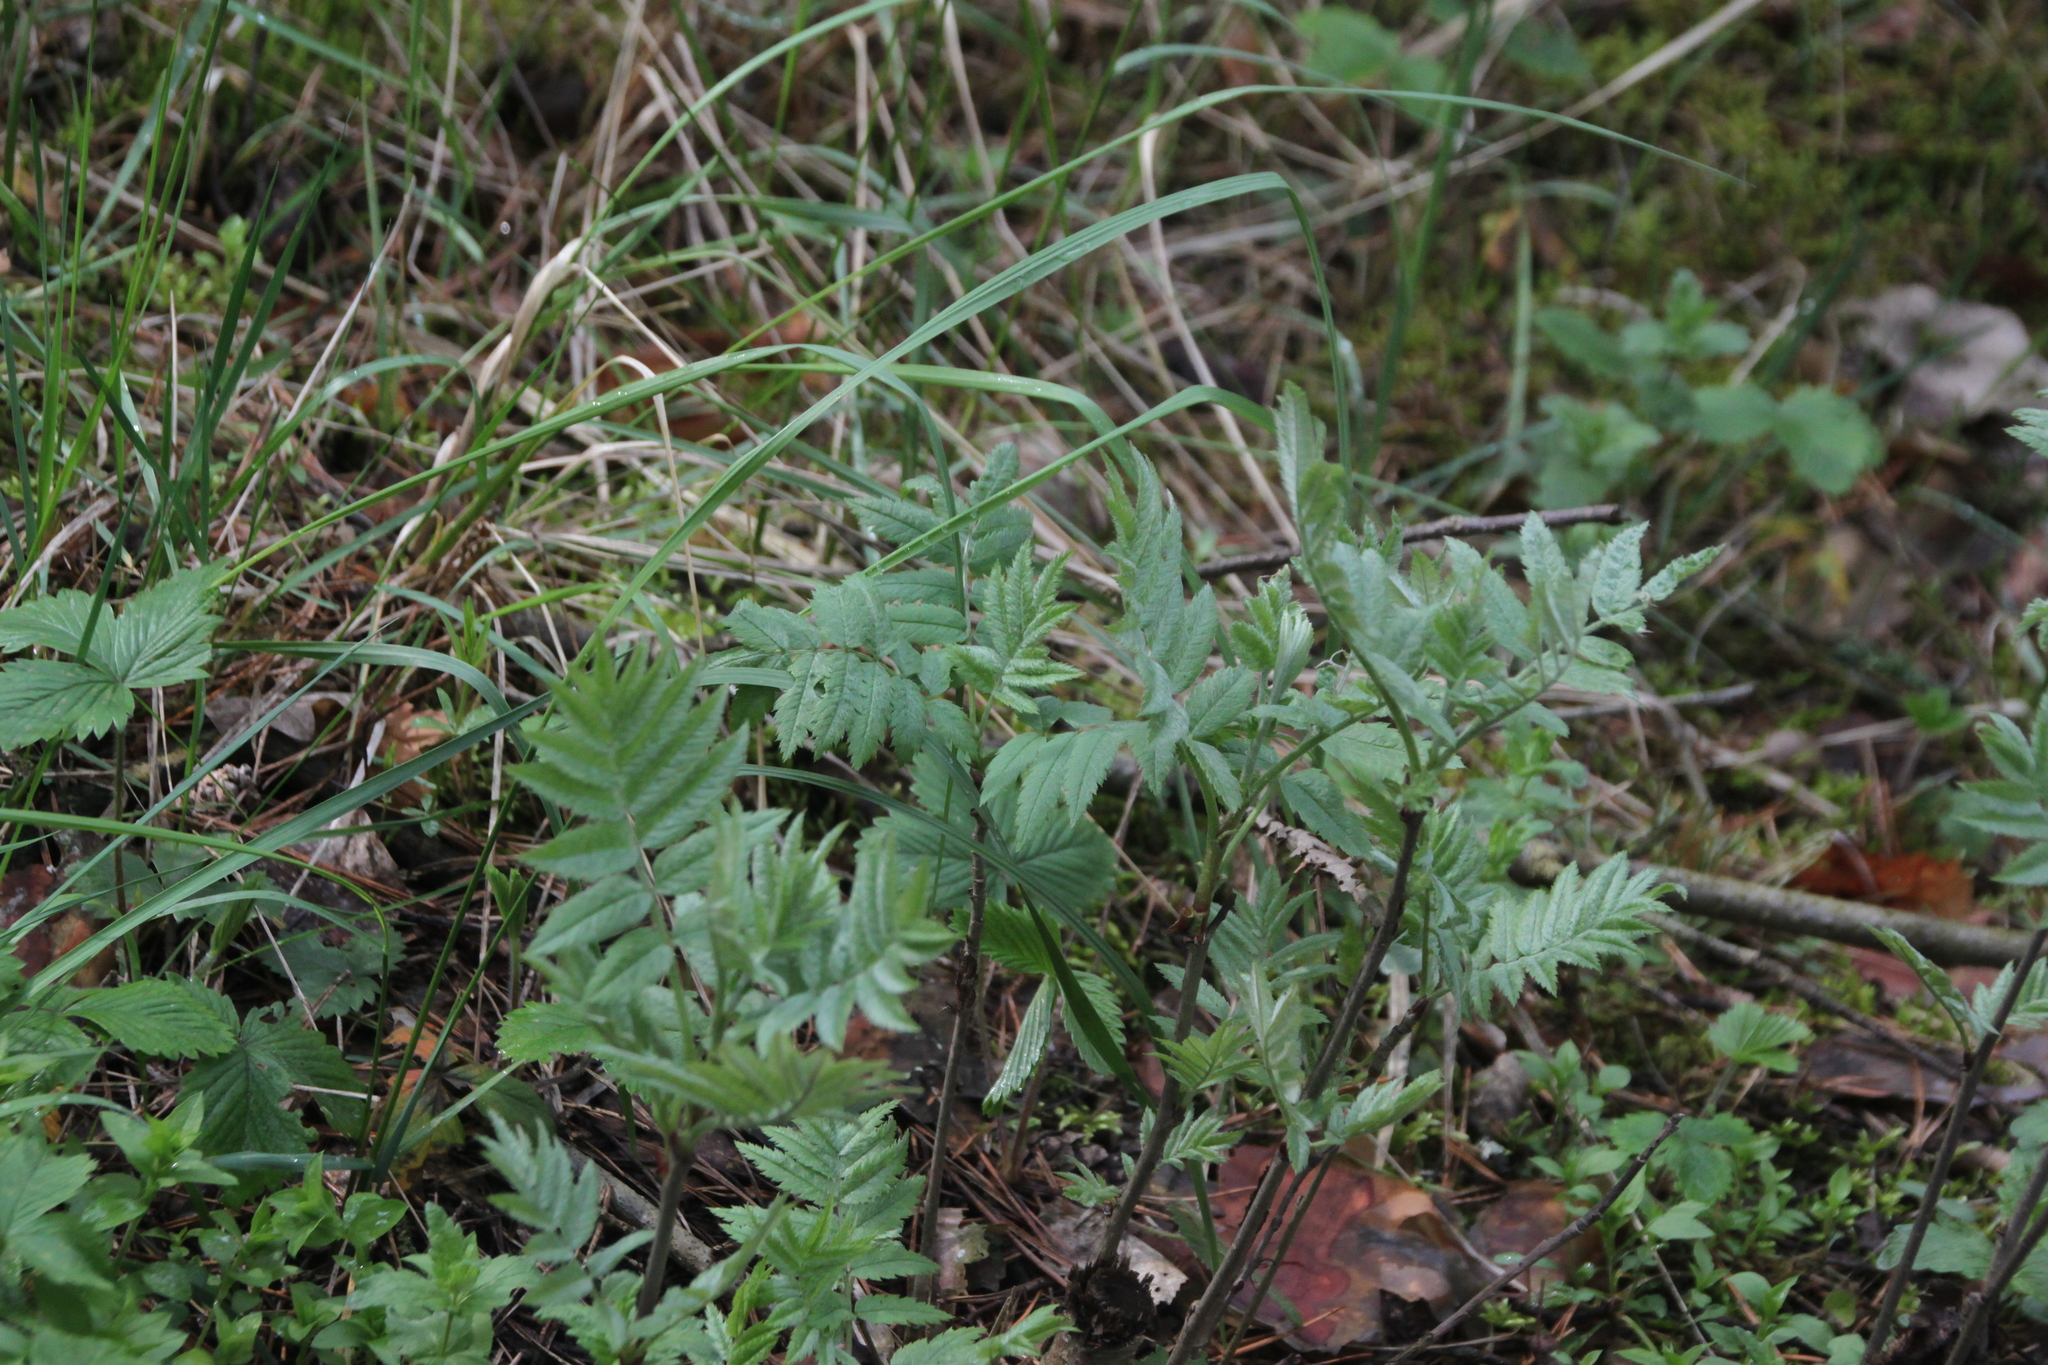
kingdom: Plantae
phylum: Tracheophyta
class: Magnoliopsida
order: Rosales
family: Rosaceae
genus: Sorbus
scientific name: Sorbus aucuparia
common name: Rowan
